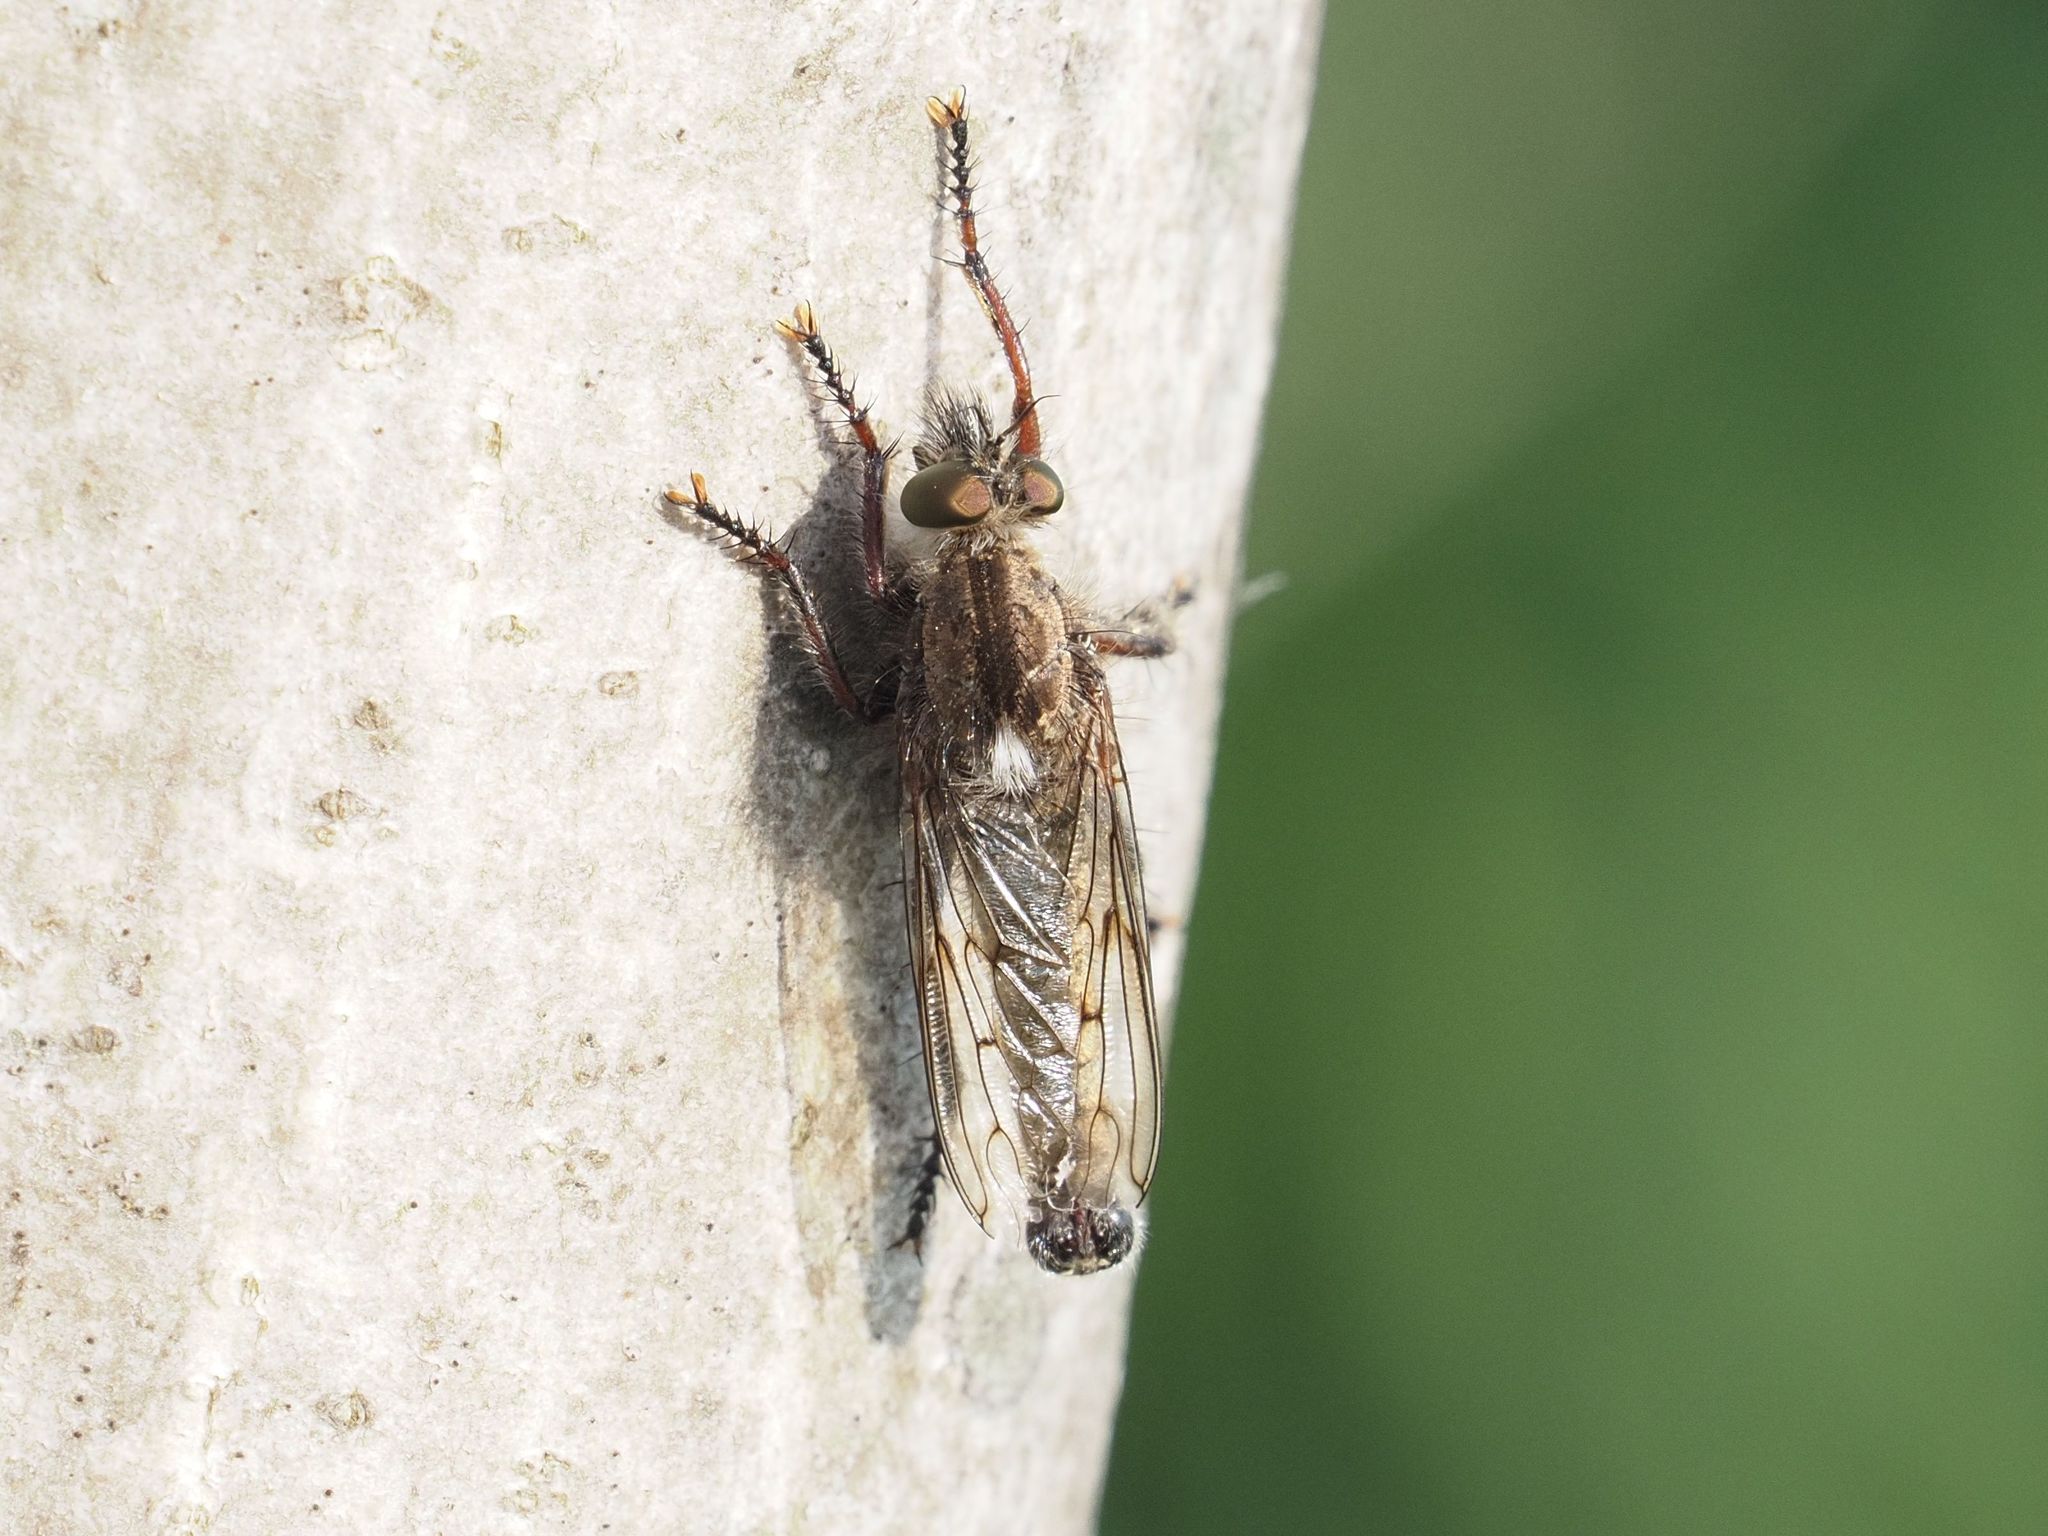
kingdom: Animalia
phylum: Arthropoda
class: Insecta
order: Diptera
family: Asilidae
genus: Erax
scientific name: Erax barbatus
